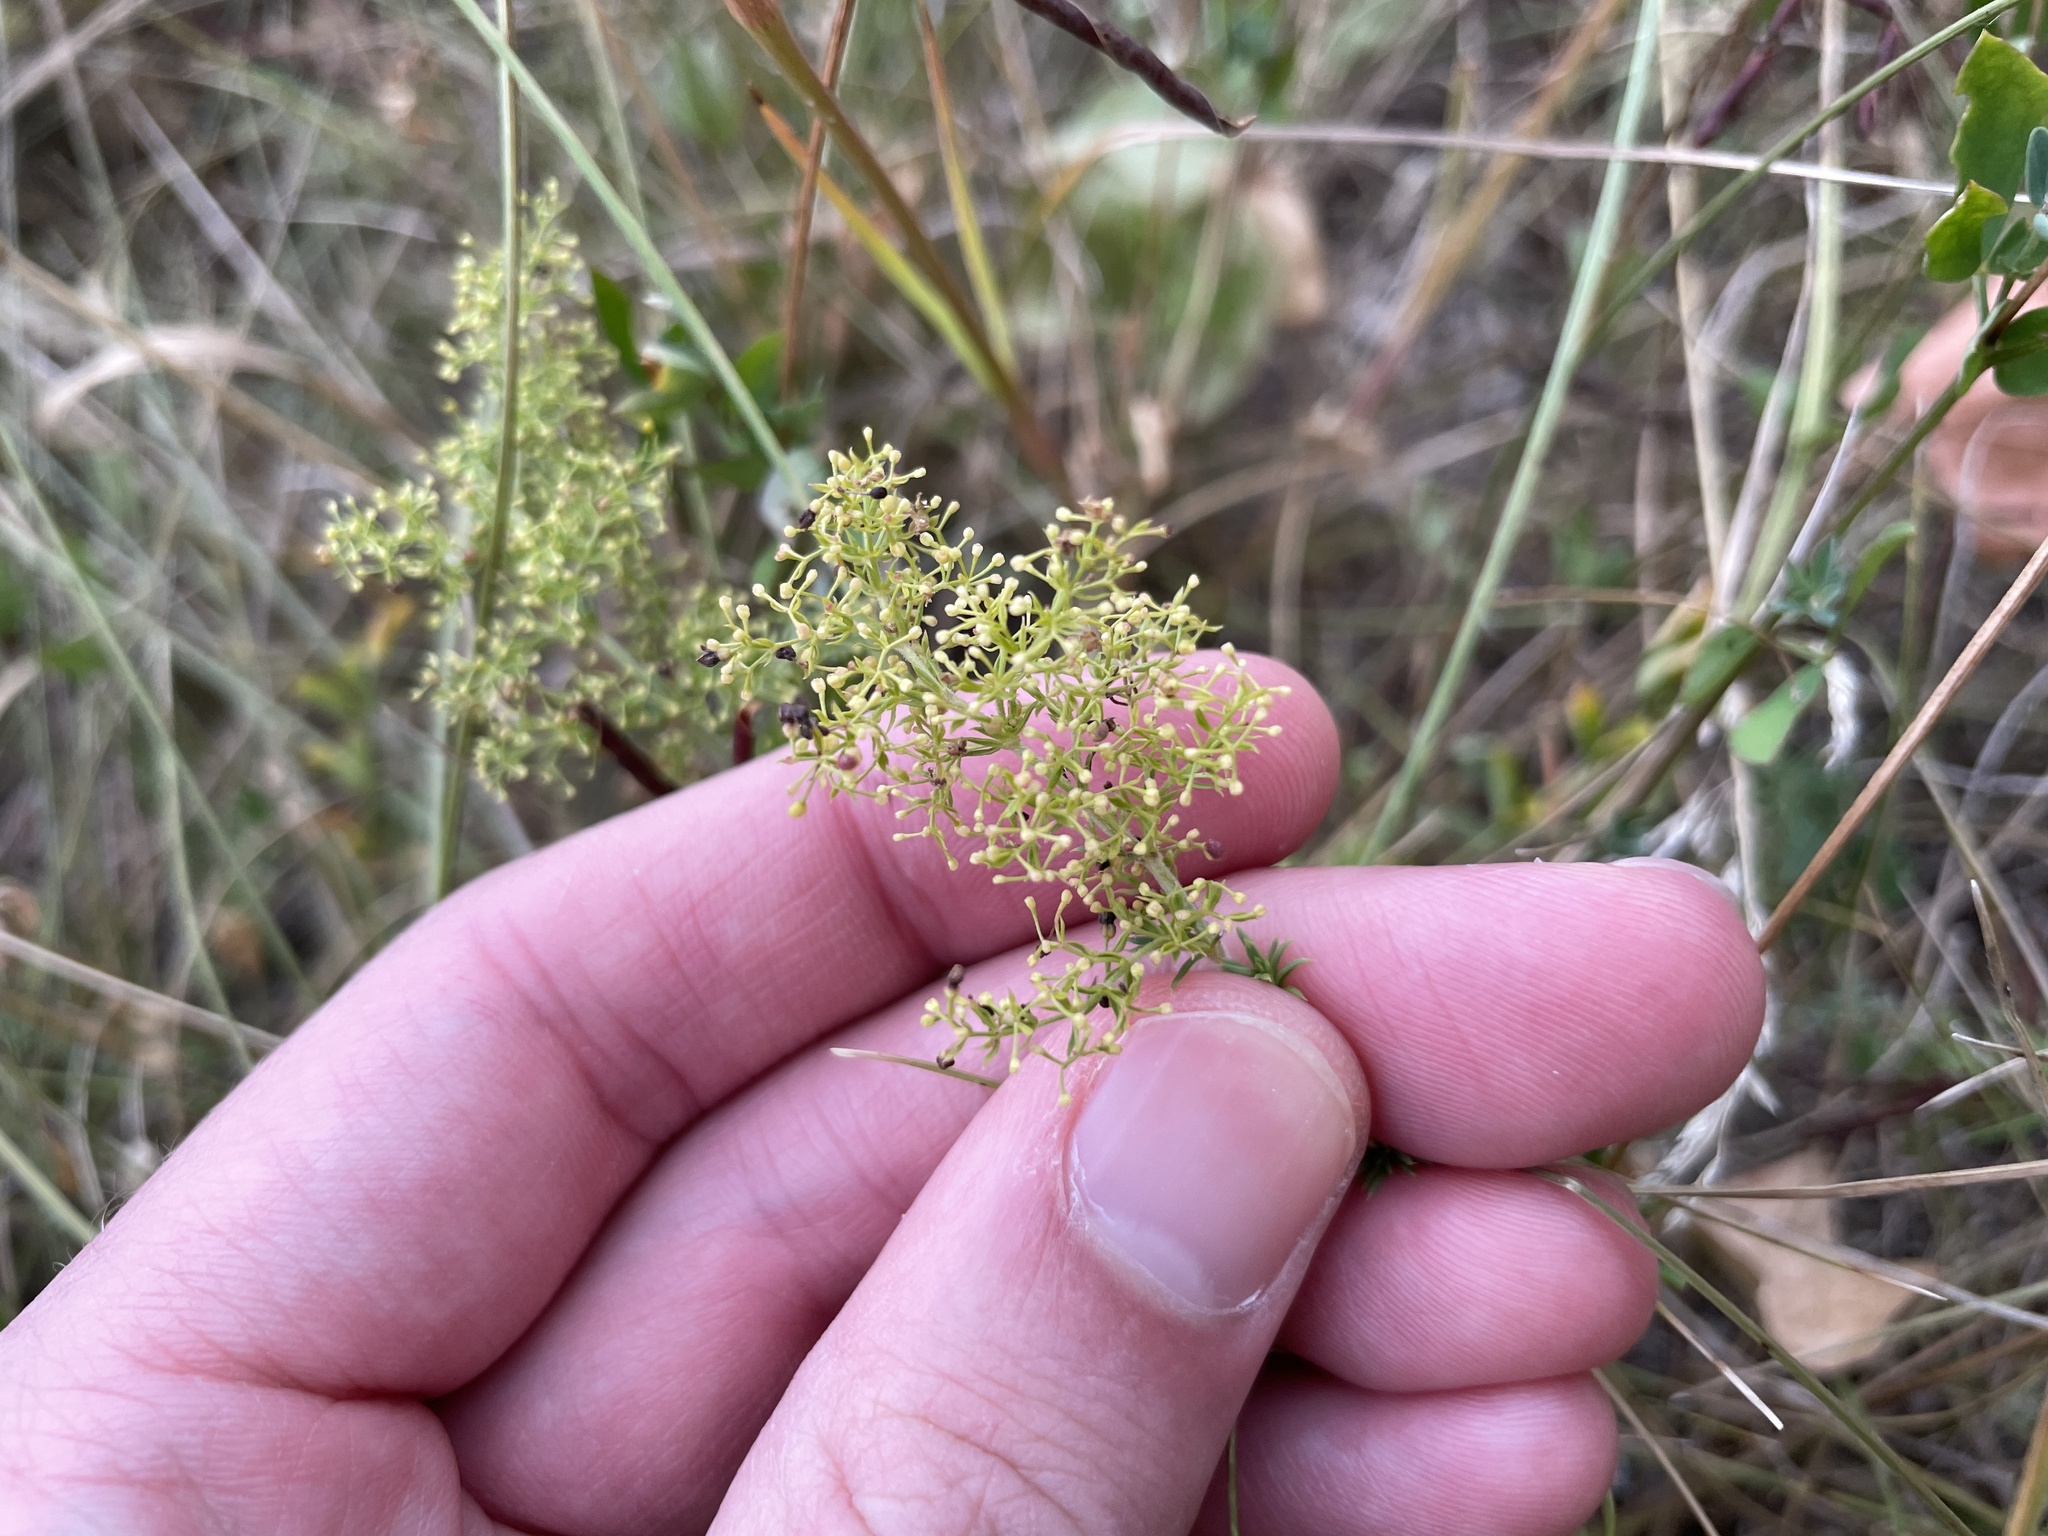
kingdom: Plantae
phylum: Tracheophyta
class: Magnoliopsida
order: Gentianales
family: Rubiaceae
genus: Galium
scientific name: Galium verum
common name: Lady's bedstraw
